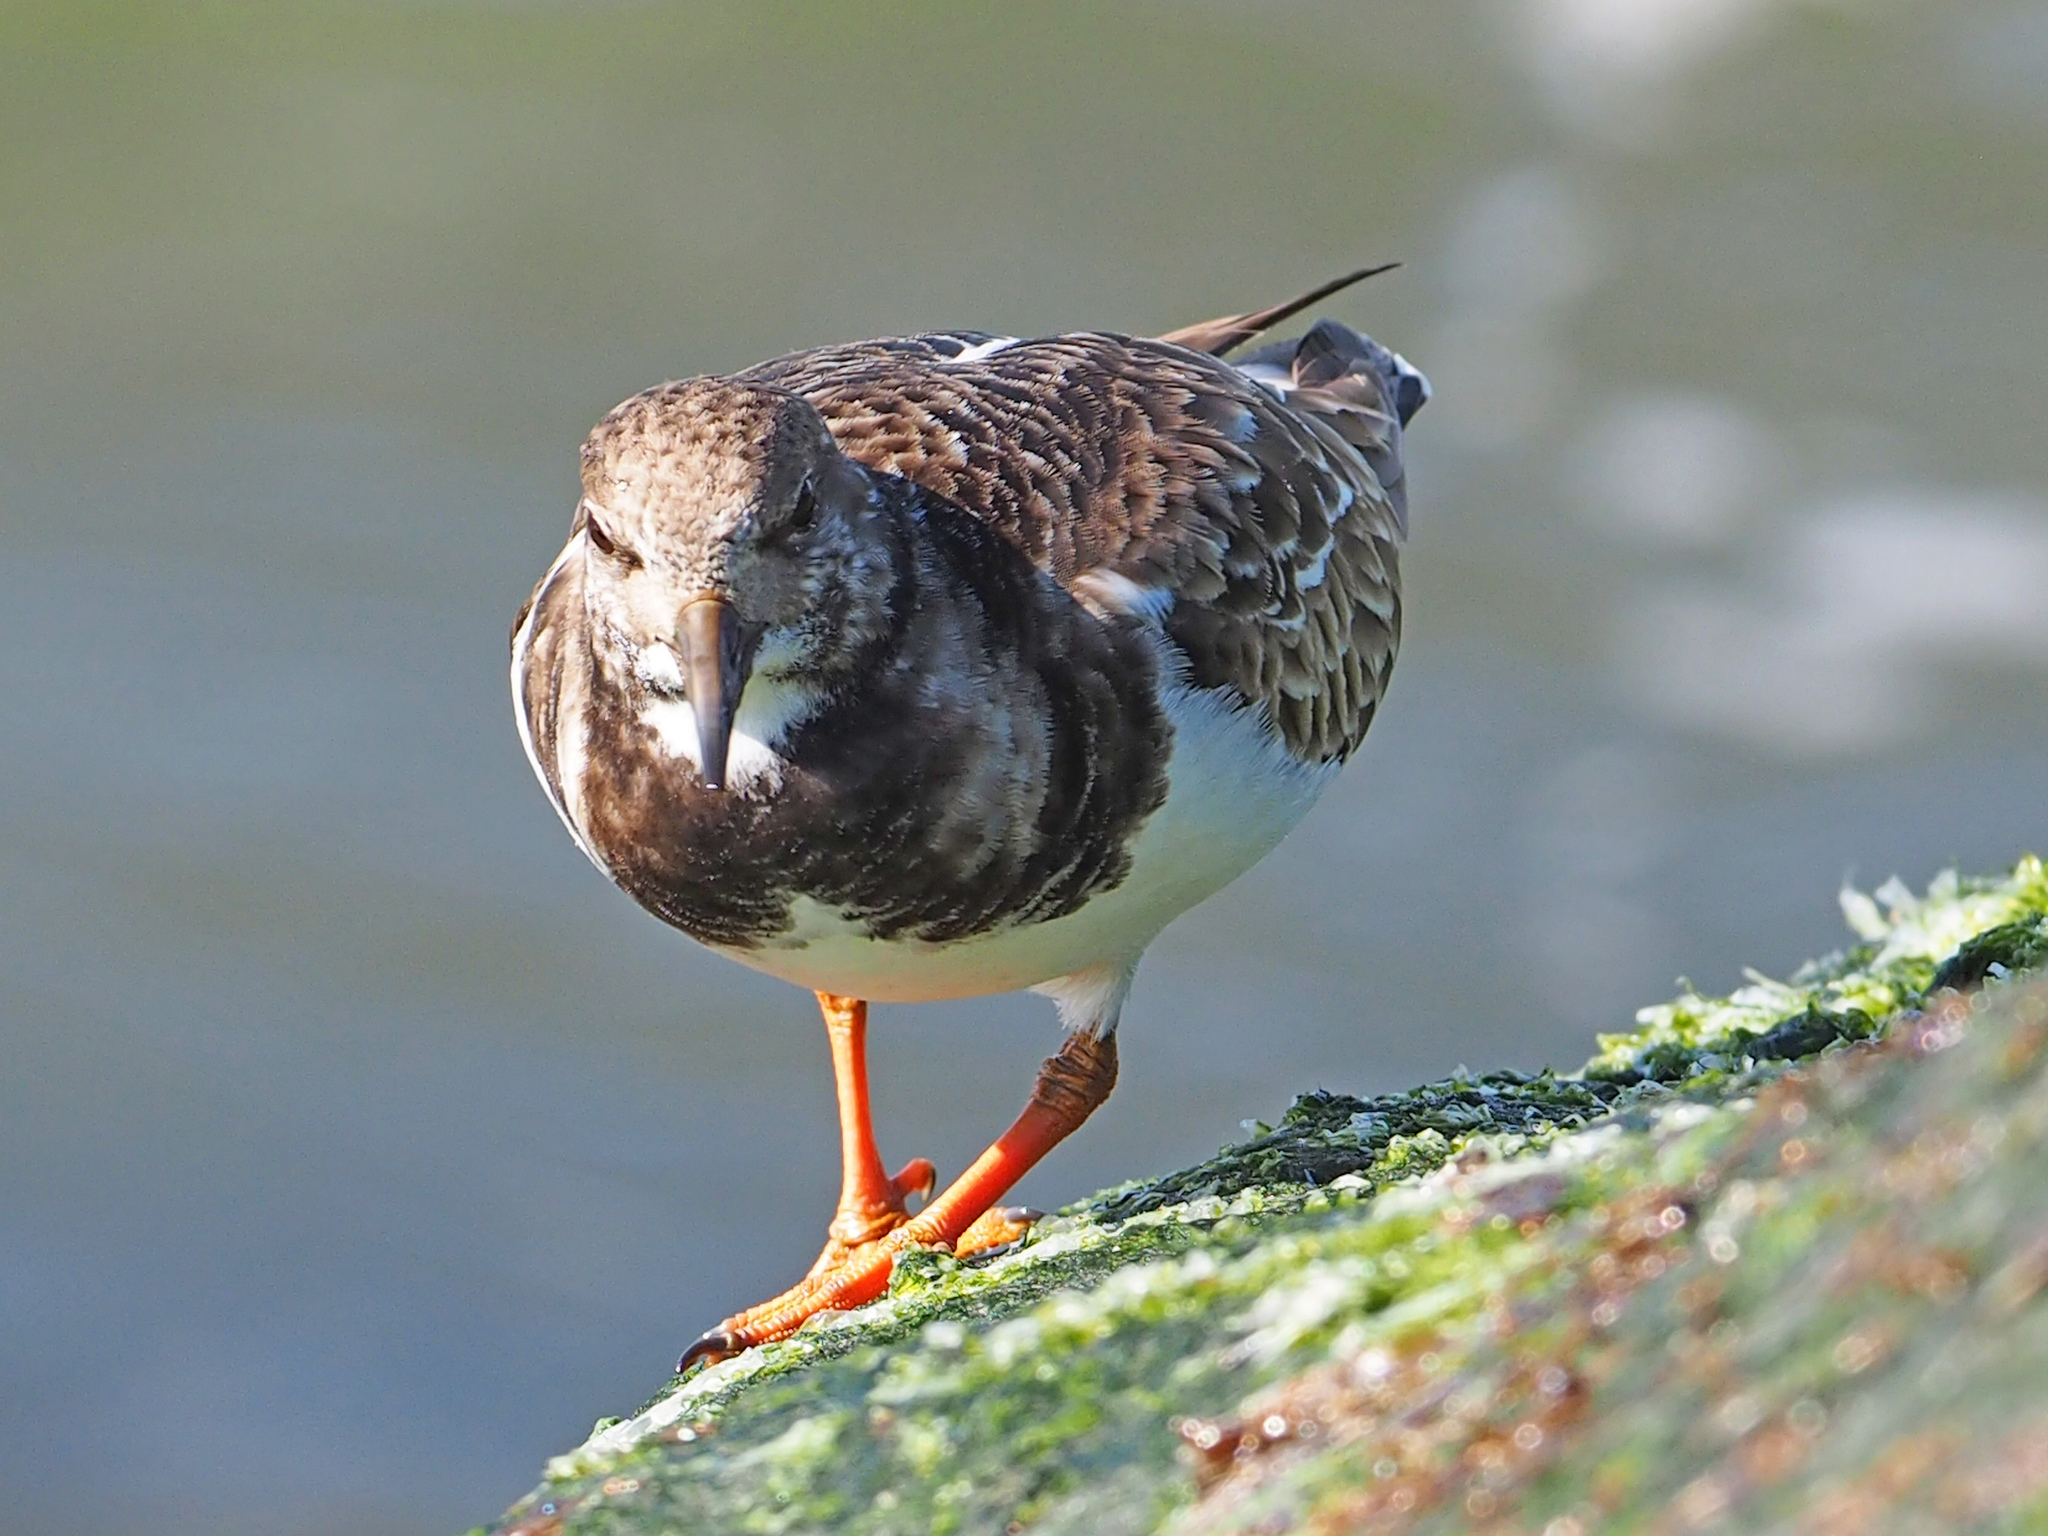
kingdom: Animalia
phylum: Chordata
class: Aves
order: Charadriiformes
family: Scolopacidae
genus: Arenaria
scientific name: Arenaria interpres
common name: Ruddy turnstone
